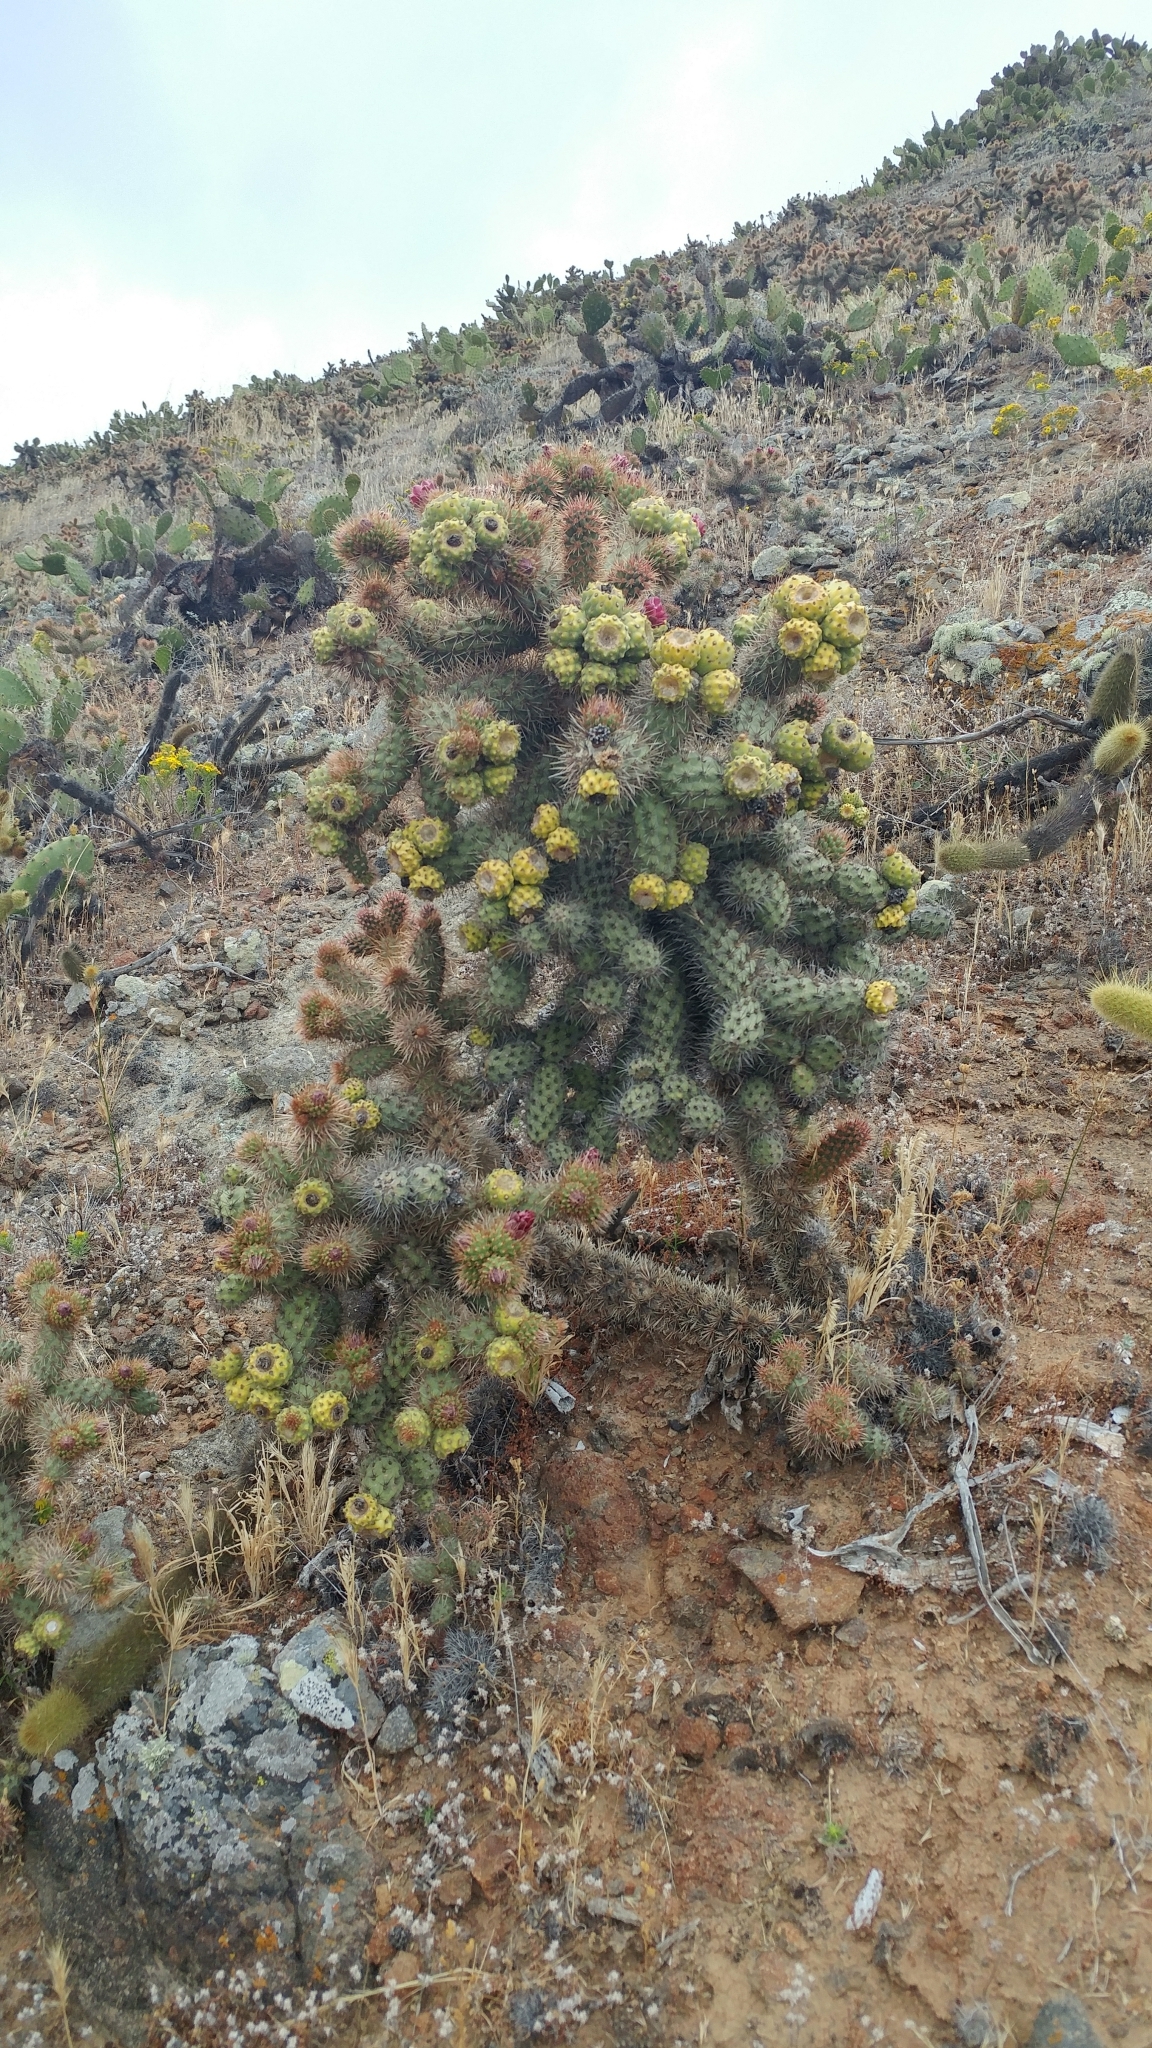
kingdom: Plantae
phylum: Tracheophyta
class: Magnoliopsida
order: Caryophyllales
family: Cactaceae
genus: Cylindropuntia
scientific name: Cylindropuntia prolifera
